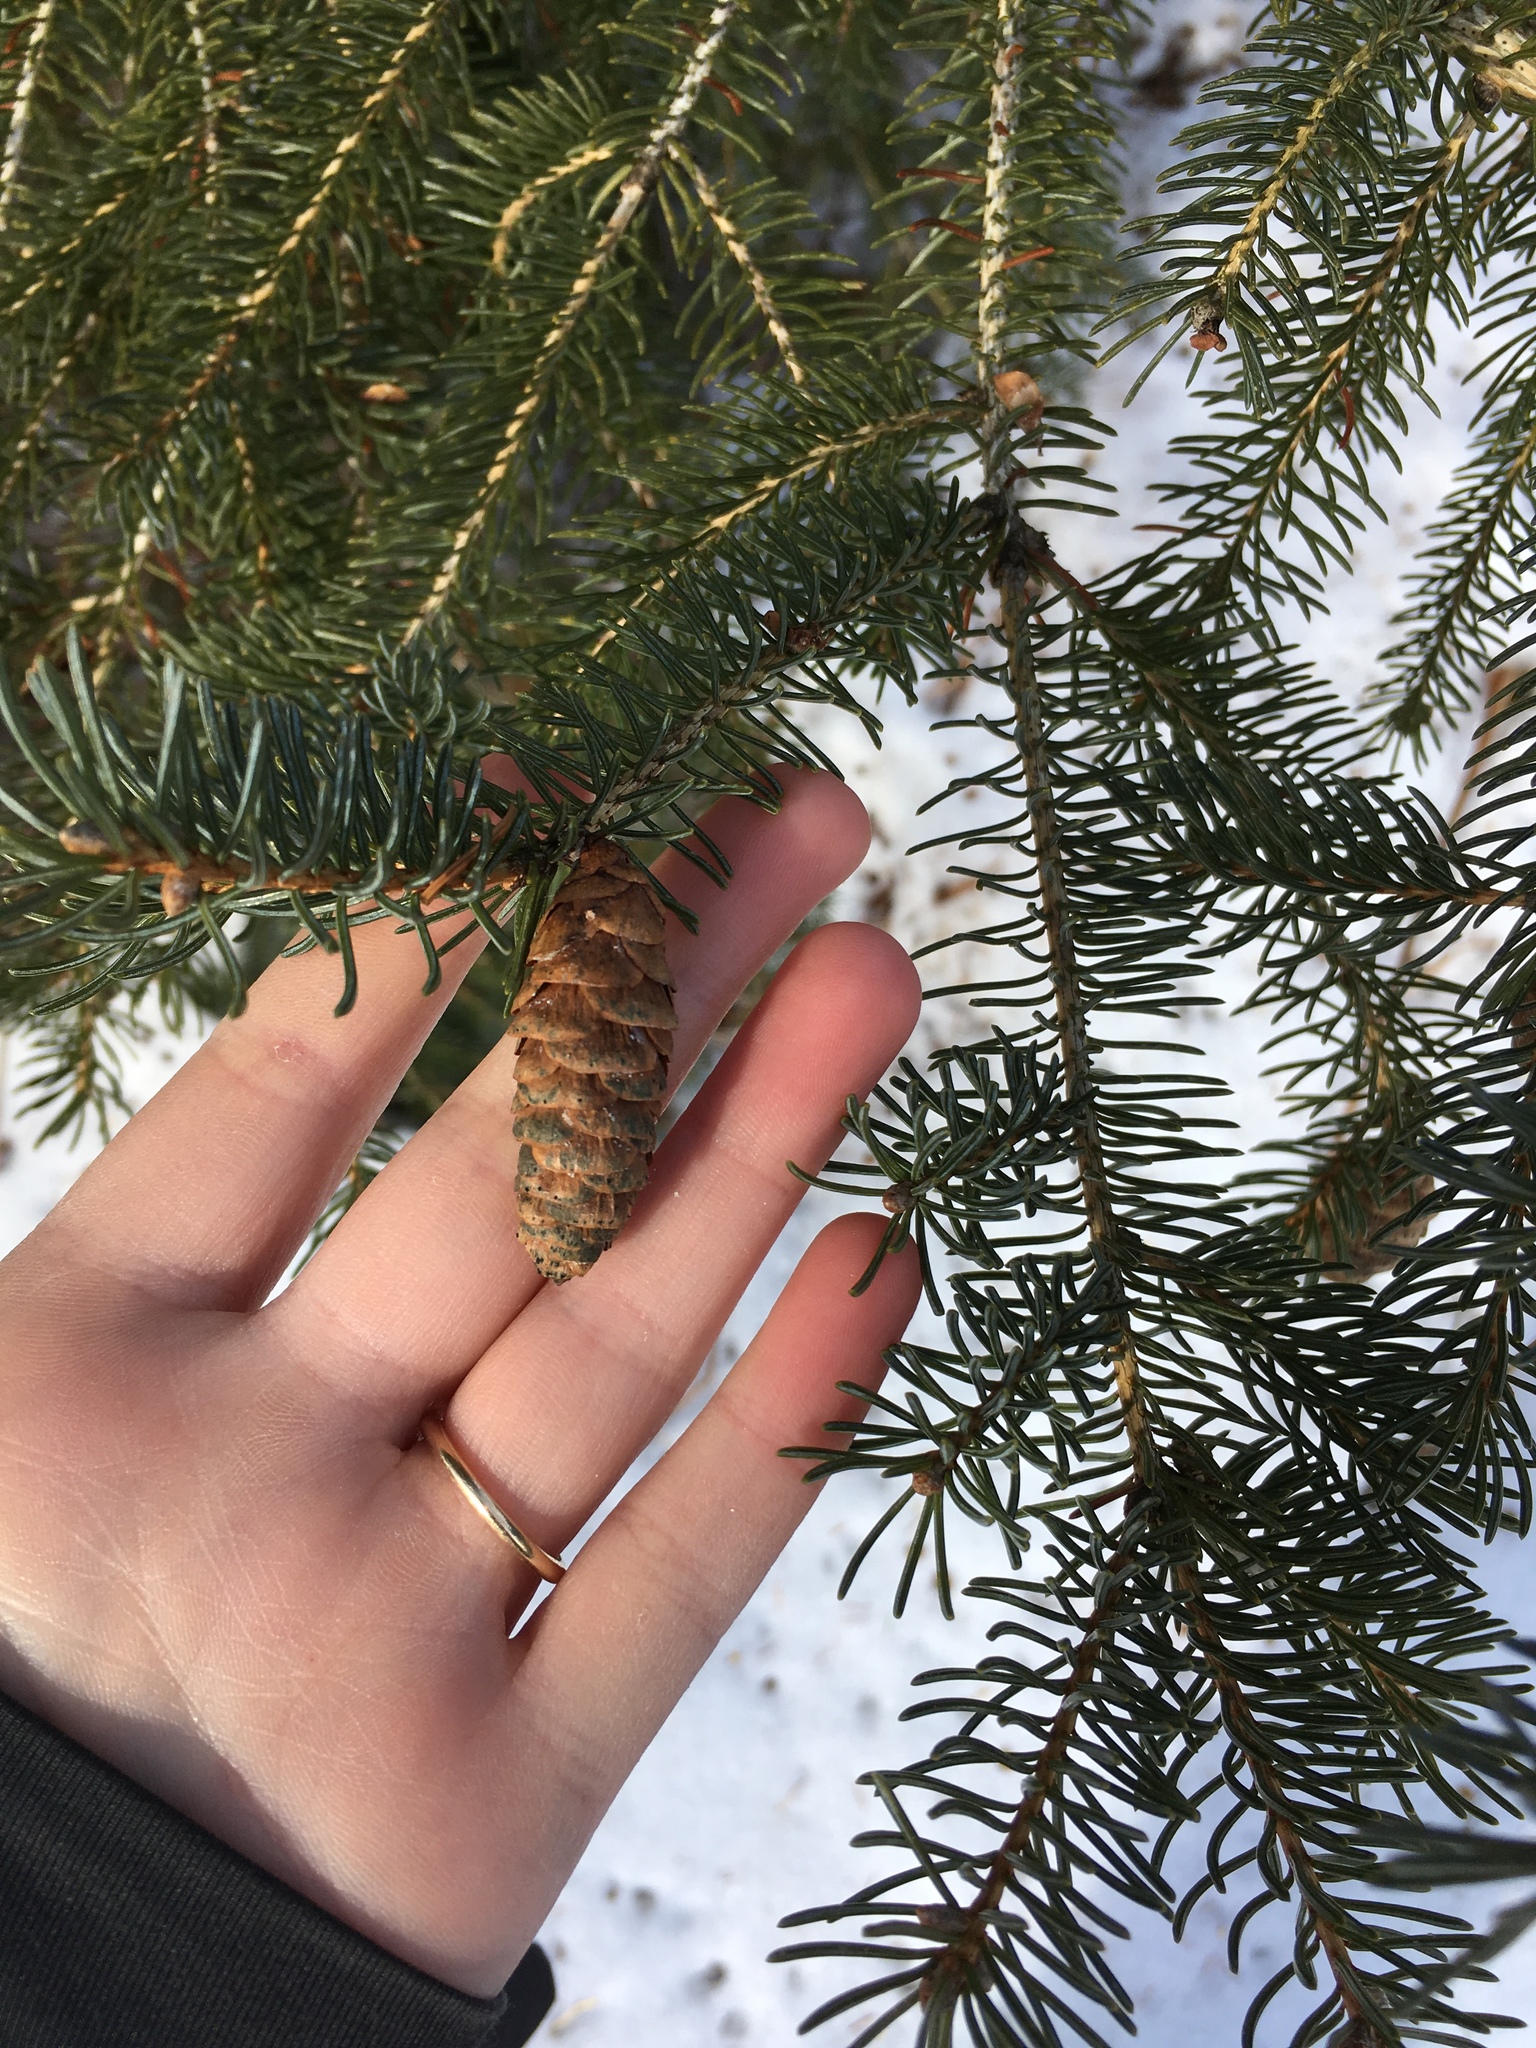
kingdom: Plantae
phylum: Tracheophyta
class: Pinopsida
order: Pinales
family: Pinaceae
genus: Picea
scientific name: Picea glauca
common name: White spruce
